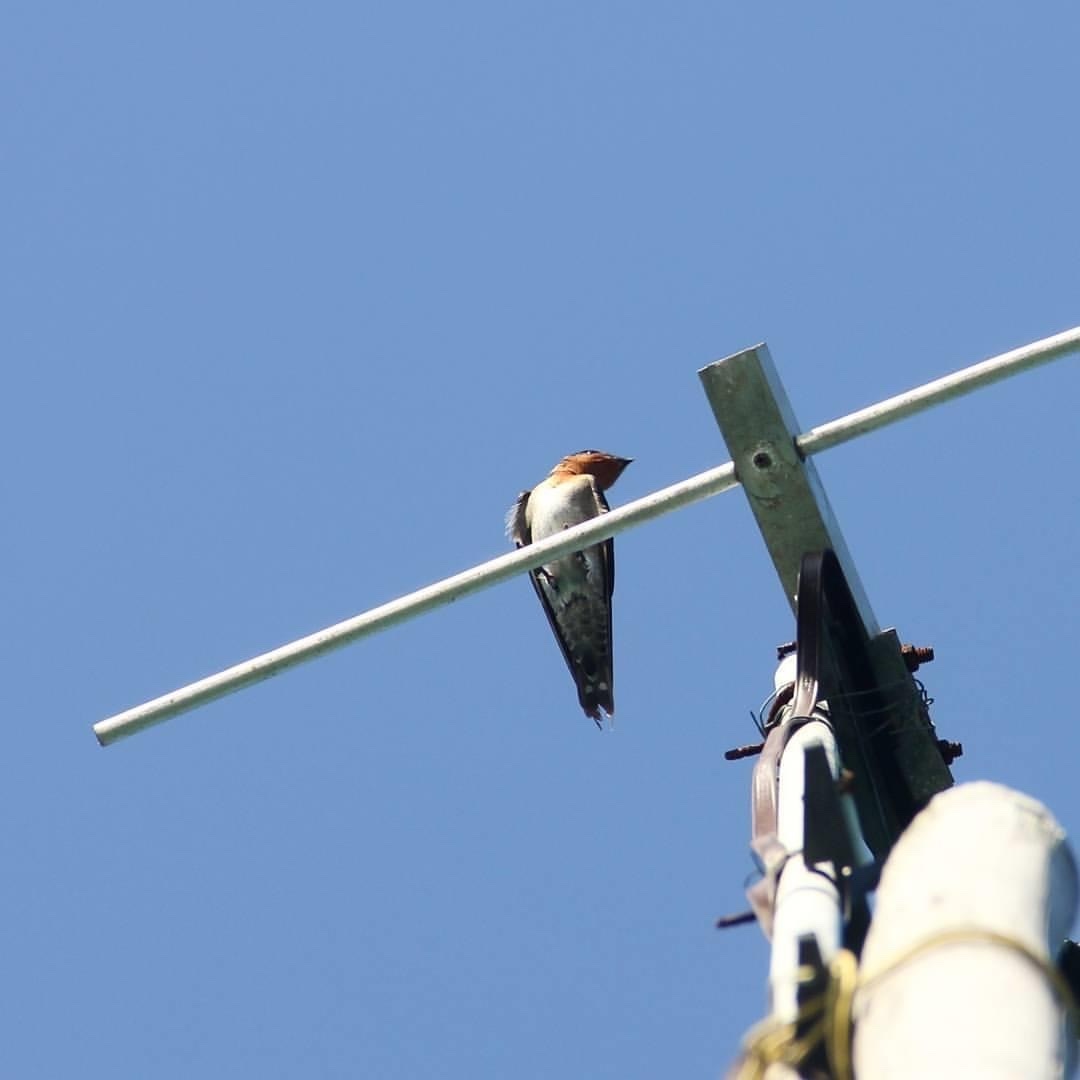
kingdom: Animalia
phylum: Chordata
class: Aves
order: Passeriformes
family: Hirundinidae
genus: Hirundo
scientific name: Hirundo tahitica
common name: Pacific swallow
